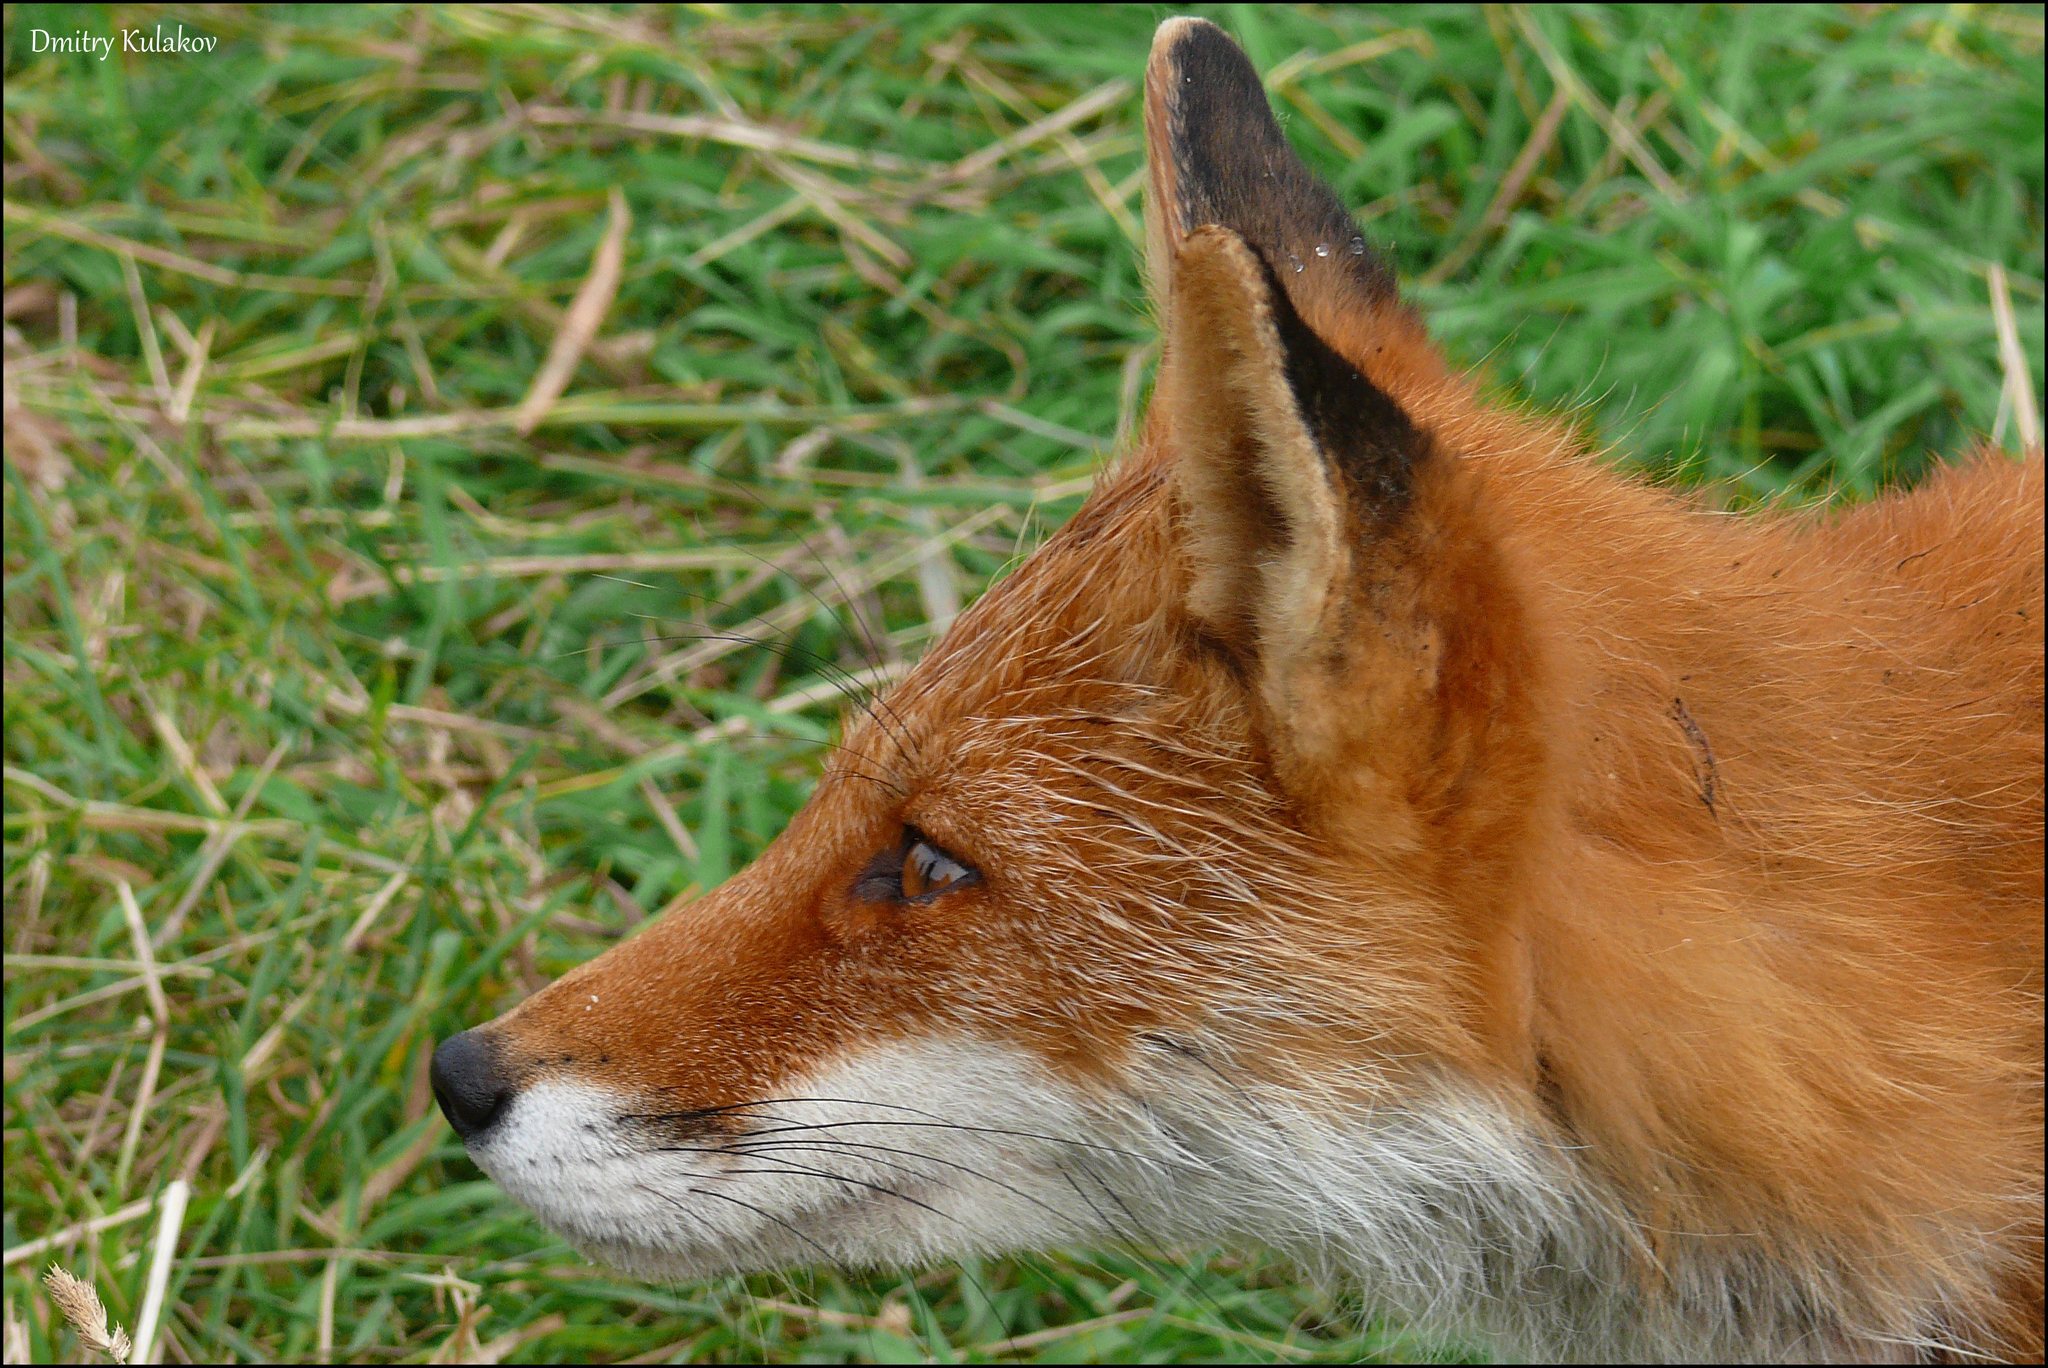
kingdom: Animalia
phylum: Chordata
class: Mammalia
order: Carnivora
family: Canidae
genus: Vulpes
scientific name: Vulpes vulpes
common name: Red fox
